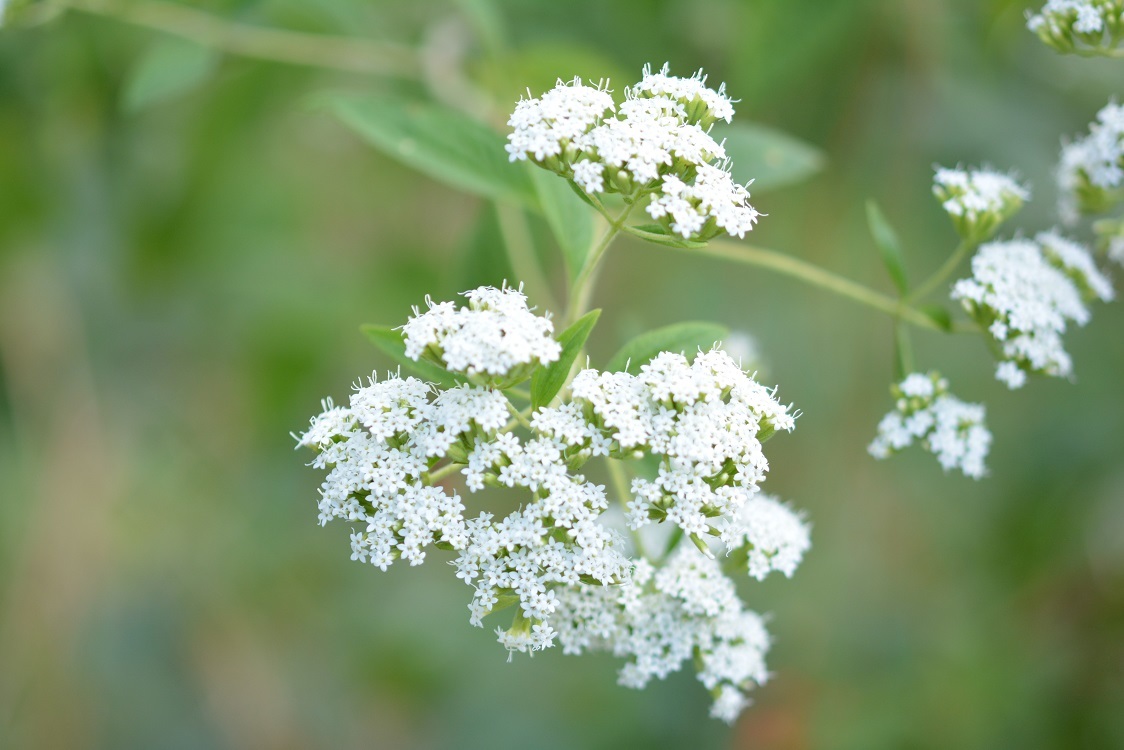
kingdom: Plantae
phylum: Tracheophyta
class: Magnoliopsida
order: Asterales
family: Asteraceae
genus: Stevia
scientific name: Stevia ovata
